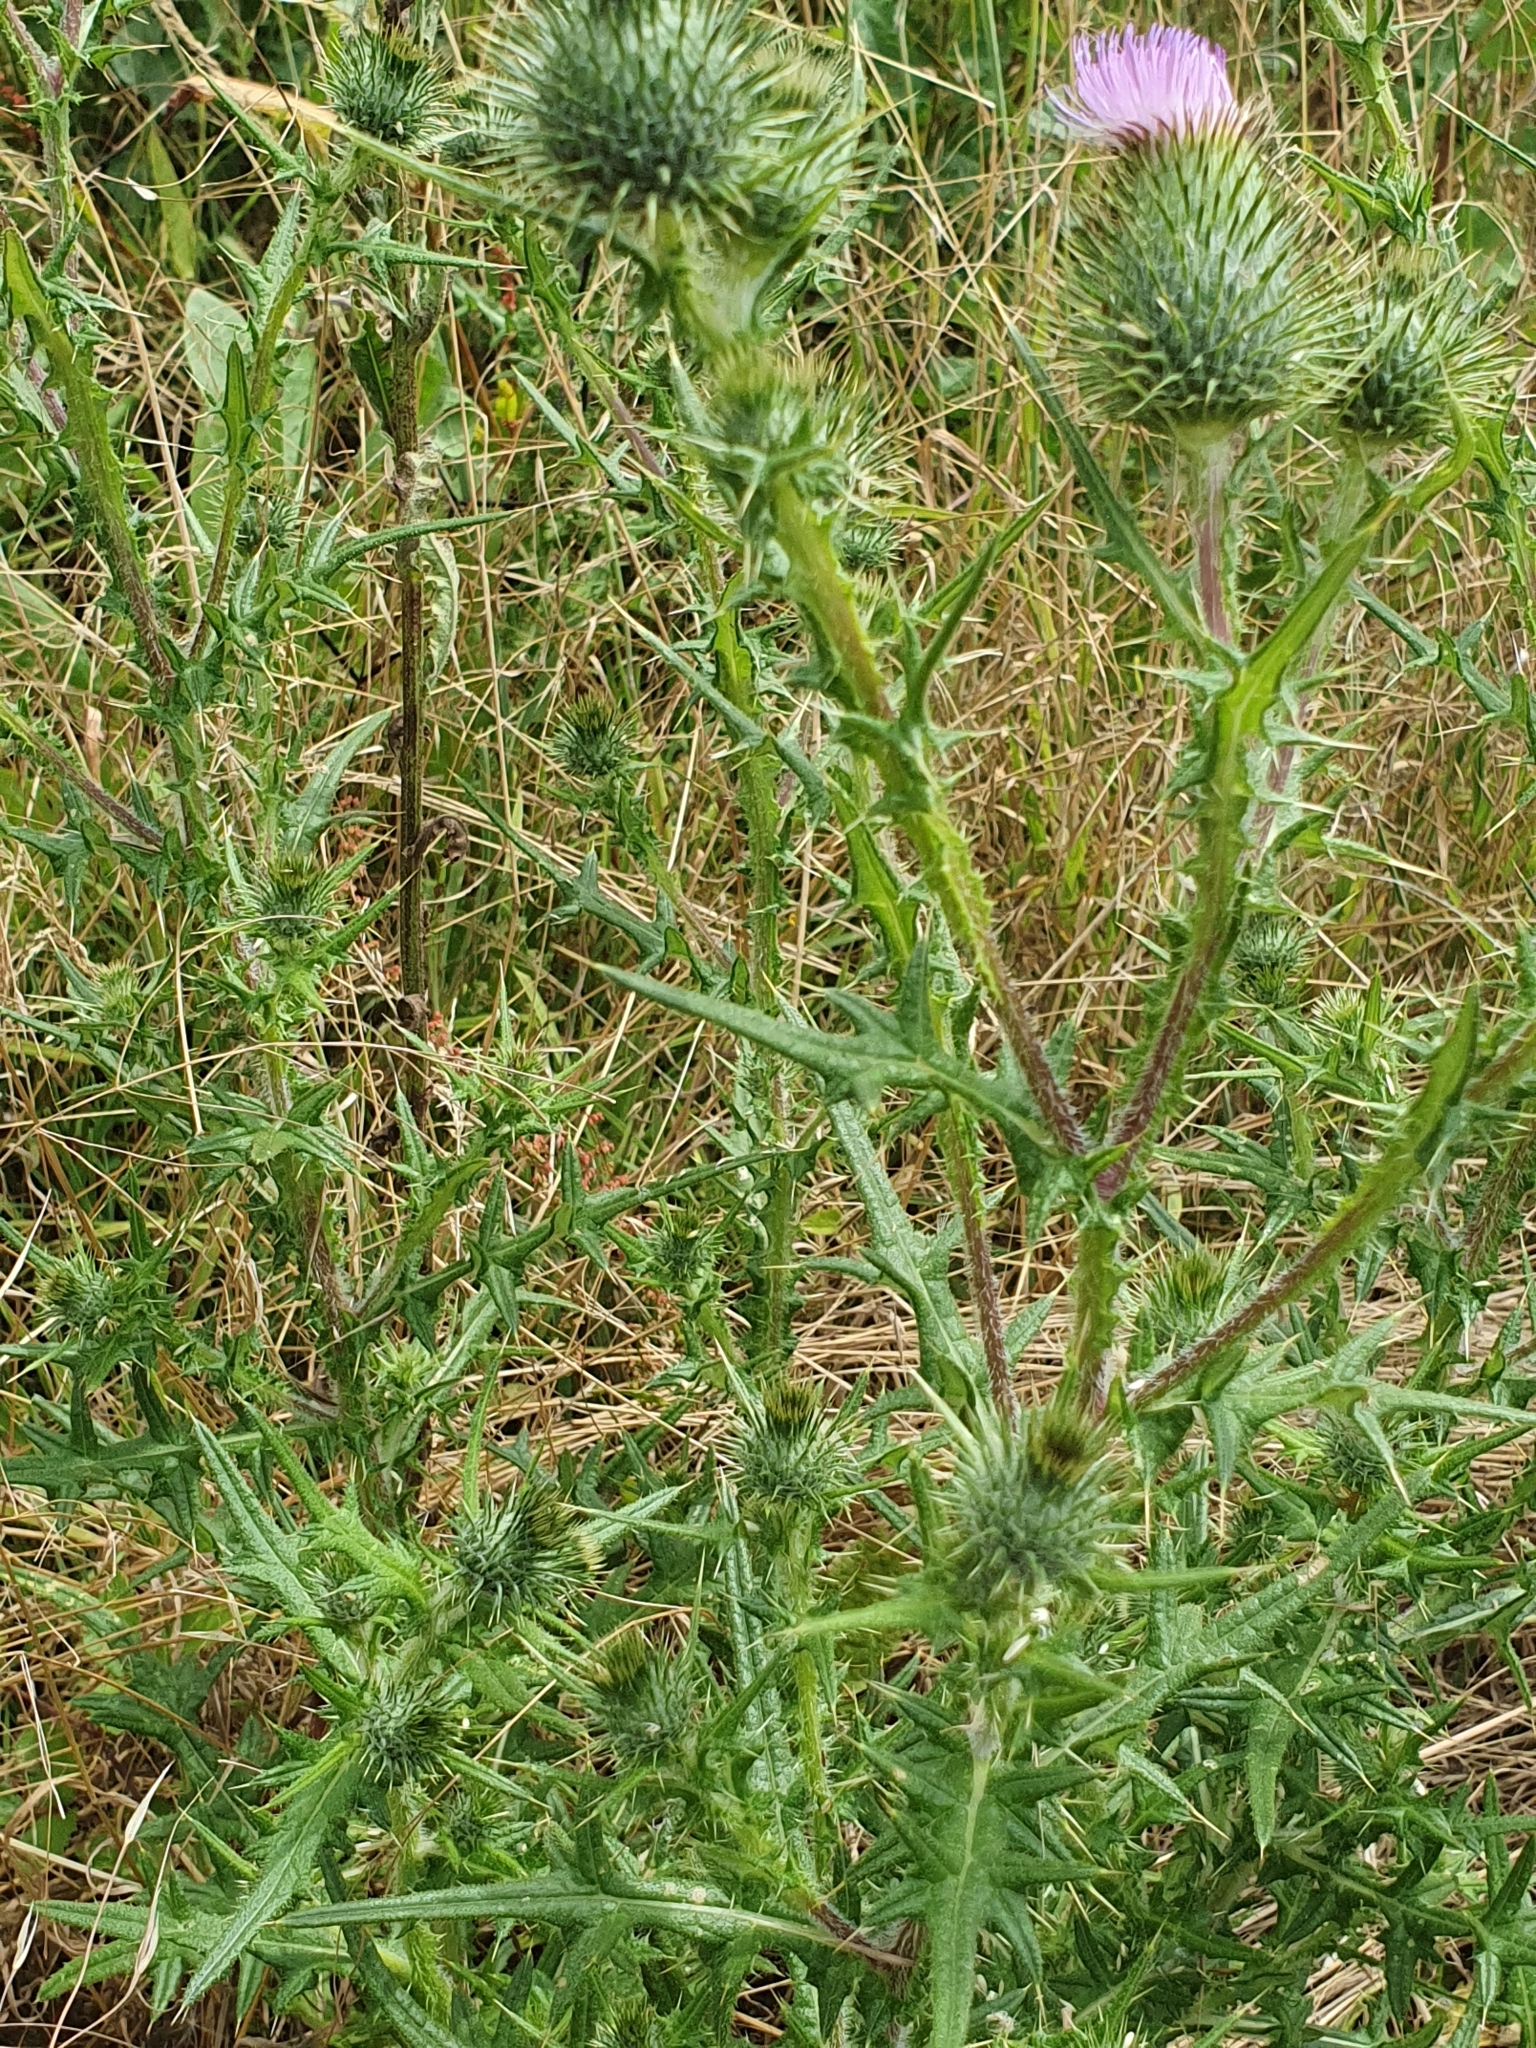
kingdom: Plantae
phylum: Tracheophyta
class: Magnoliopsida
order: Asterales
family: Asteraceae
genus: Cirsium
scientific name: Cirsium vulgare
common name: Bull thistle
